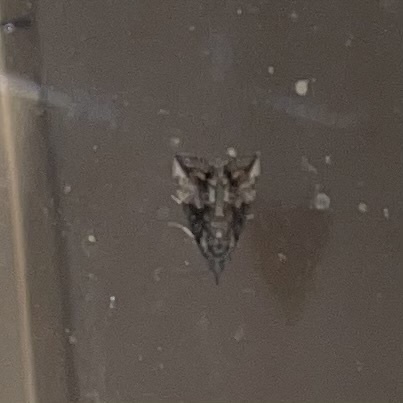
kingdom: Animalia
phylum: Arthropoda
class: Insecta
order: Lepidoptera
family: Erebidae
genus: Hypena
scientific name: Hypena scabra
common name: Green cloverworm
